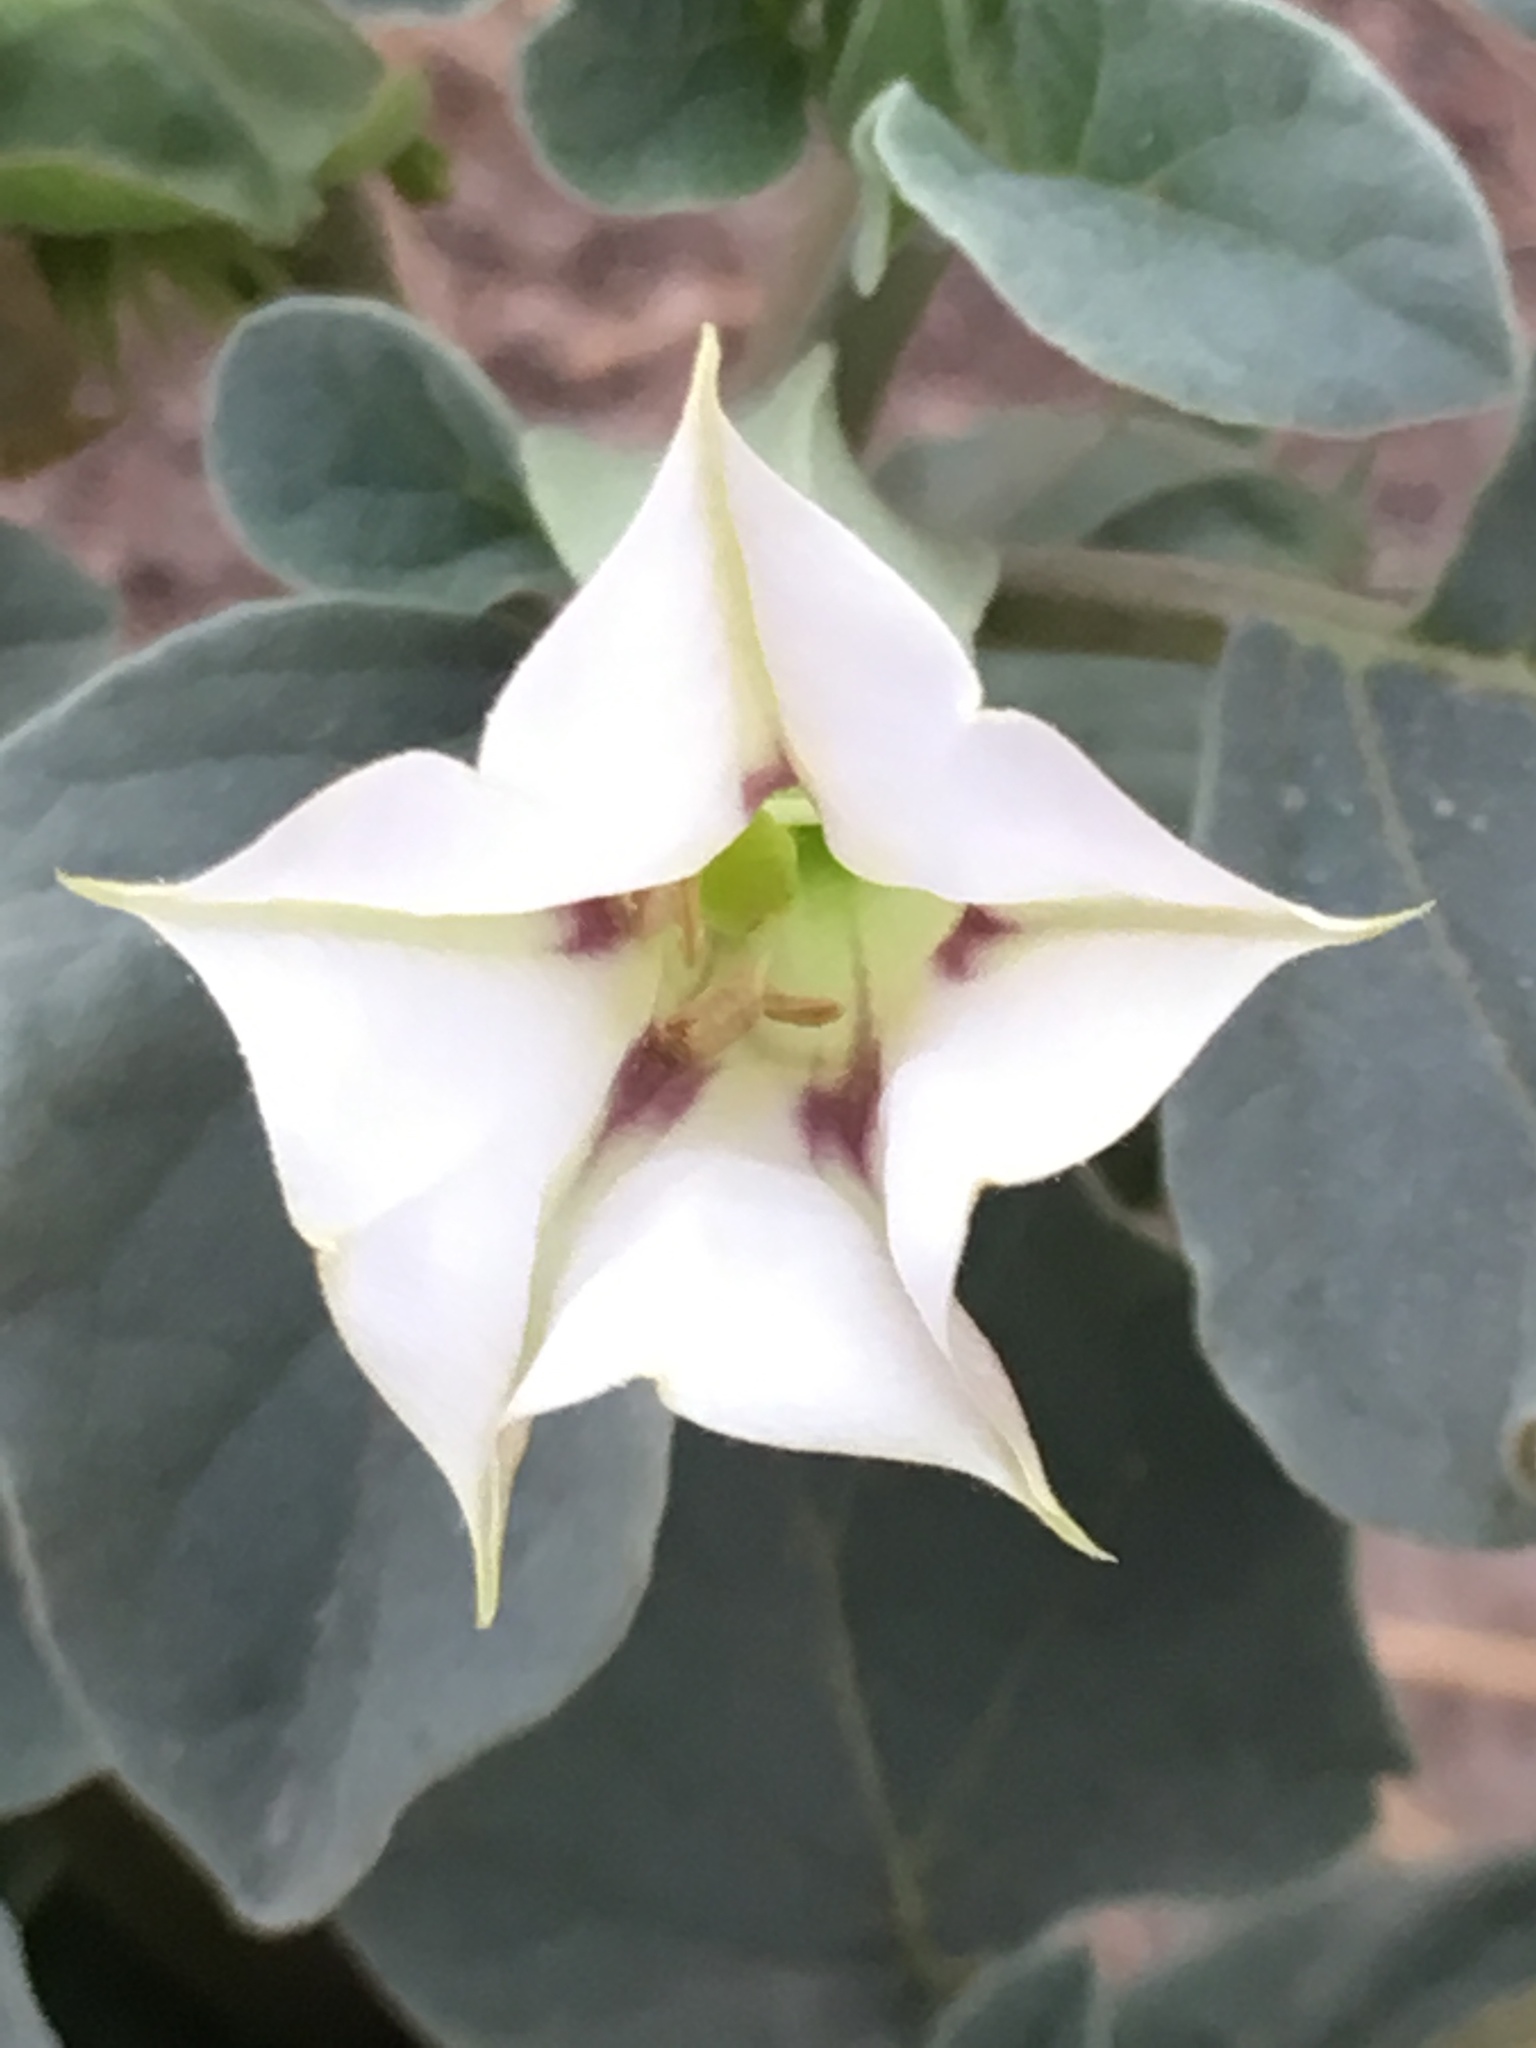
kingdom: Plantae
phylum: Tracheophyta
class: Magnoliopsida
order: Solanales
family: Solanaceae
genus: Datura
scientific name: Datura discolor
